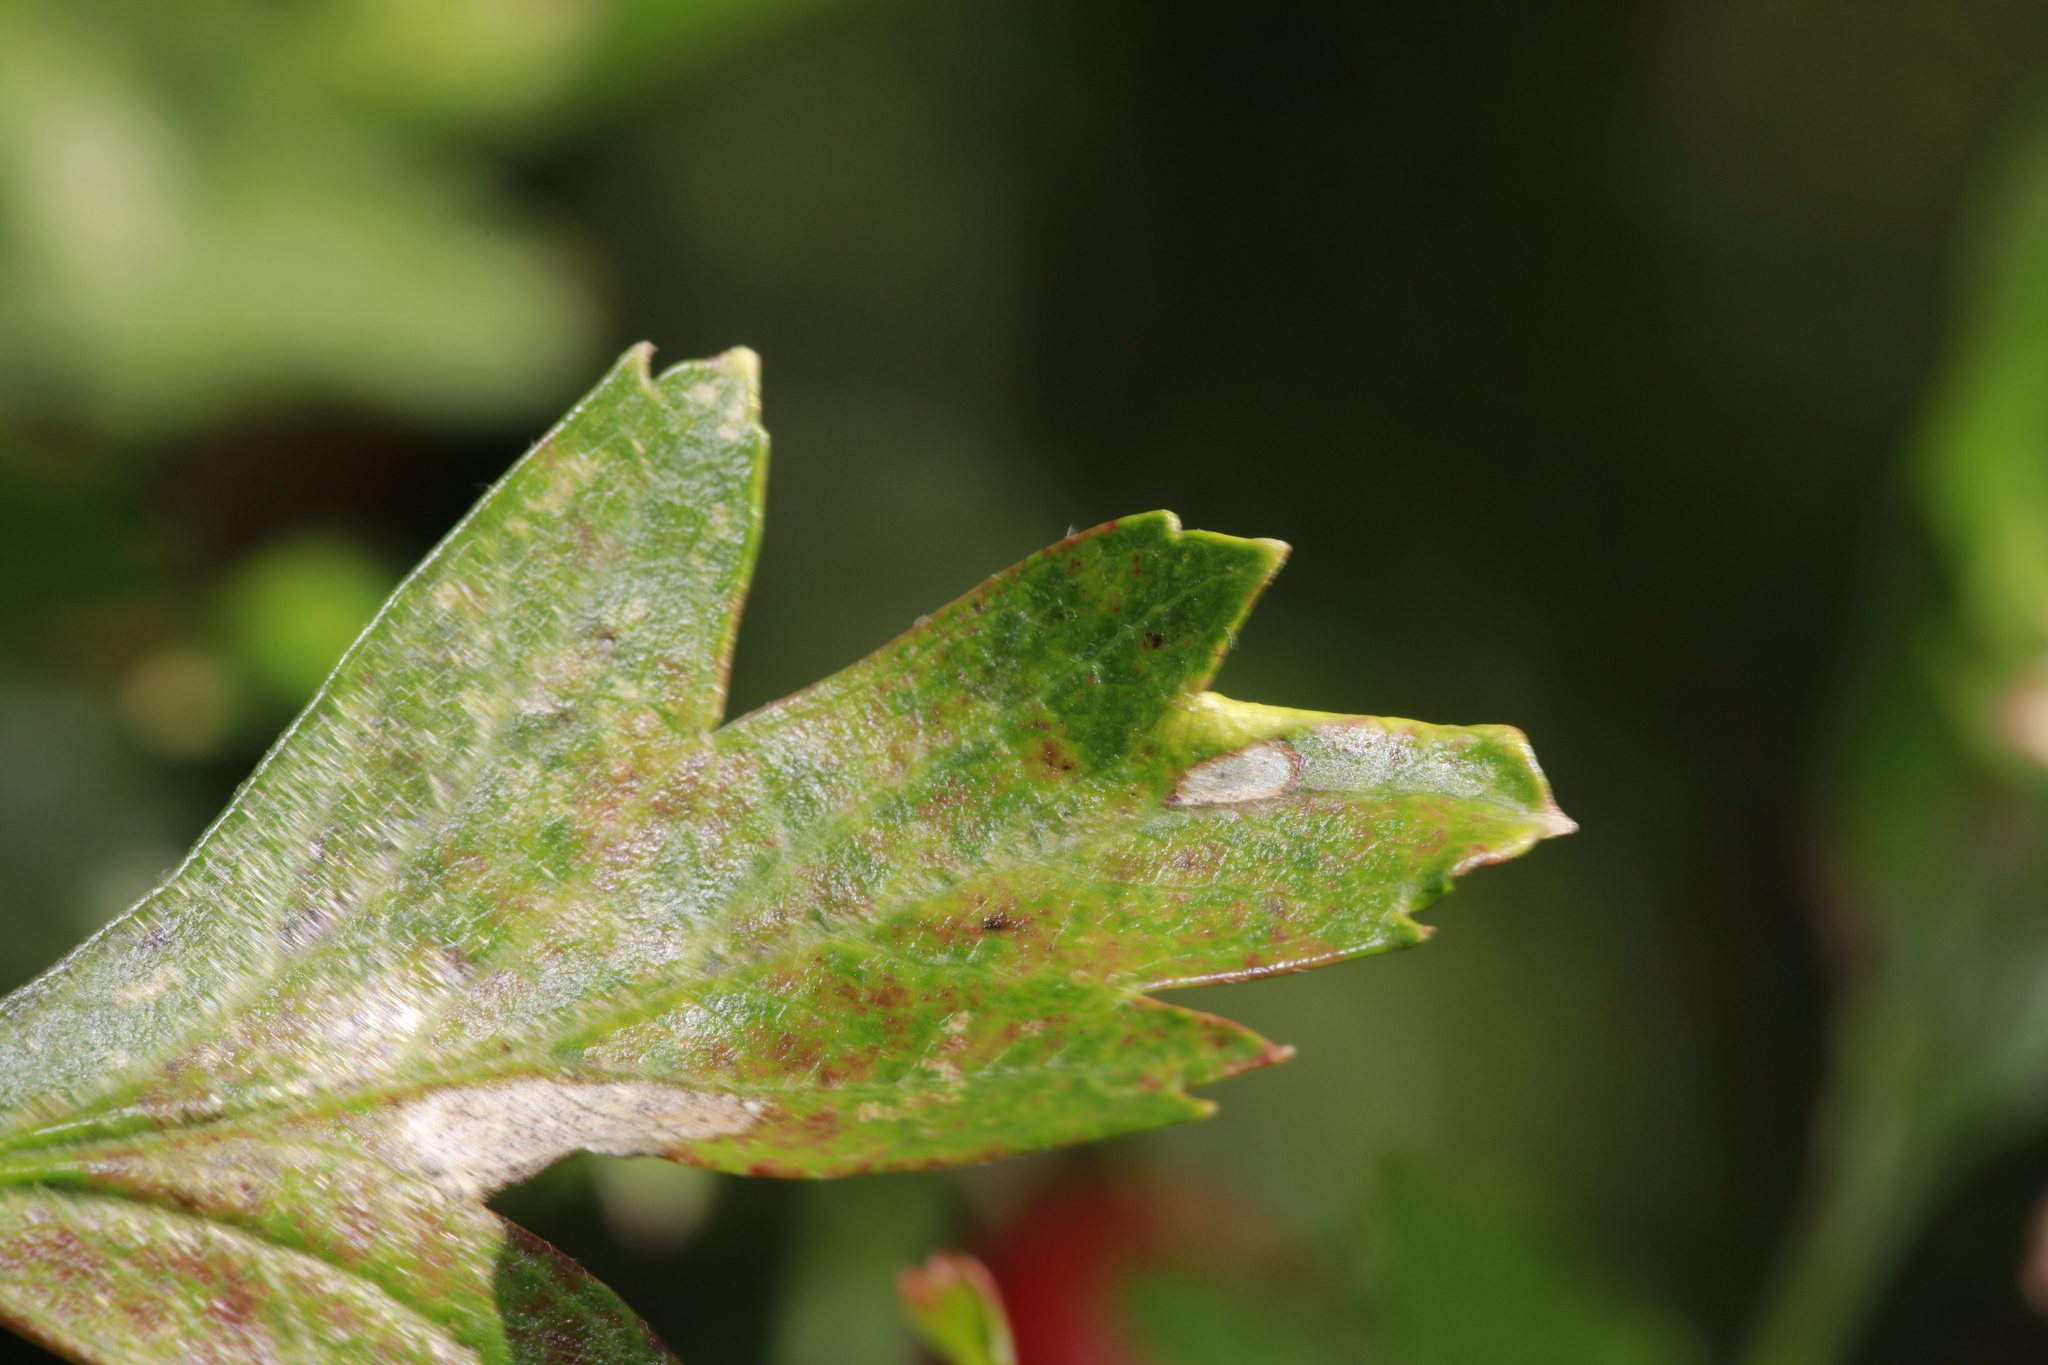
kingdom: Animalia
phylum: Arthropoda
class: Arachnida
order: Trombidiformes
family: Eriophyidae
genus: Phyllocoptes
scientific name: Phyllocoptes goniothorax
